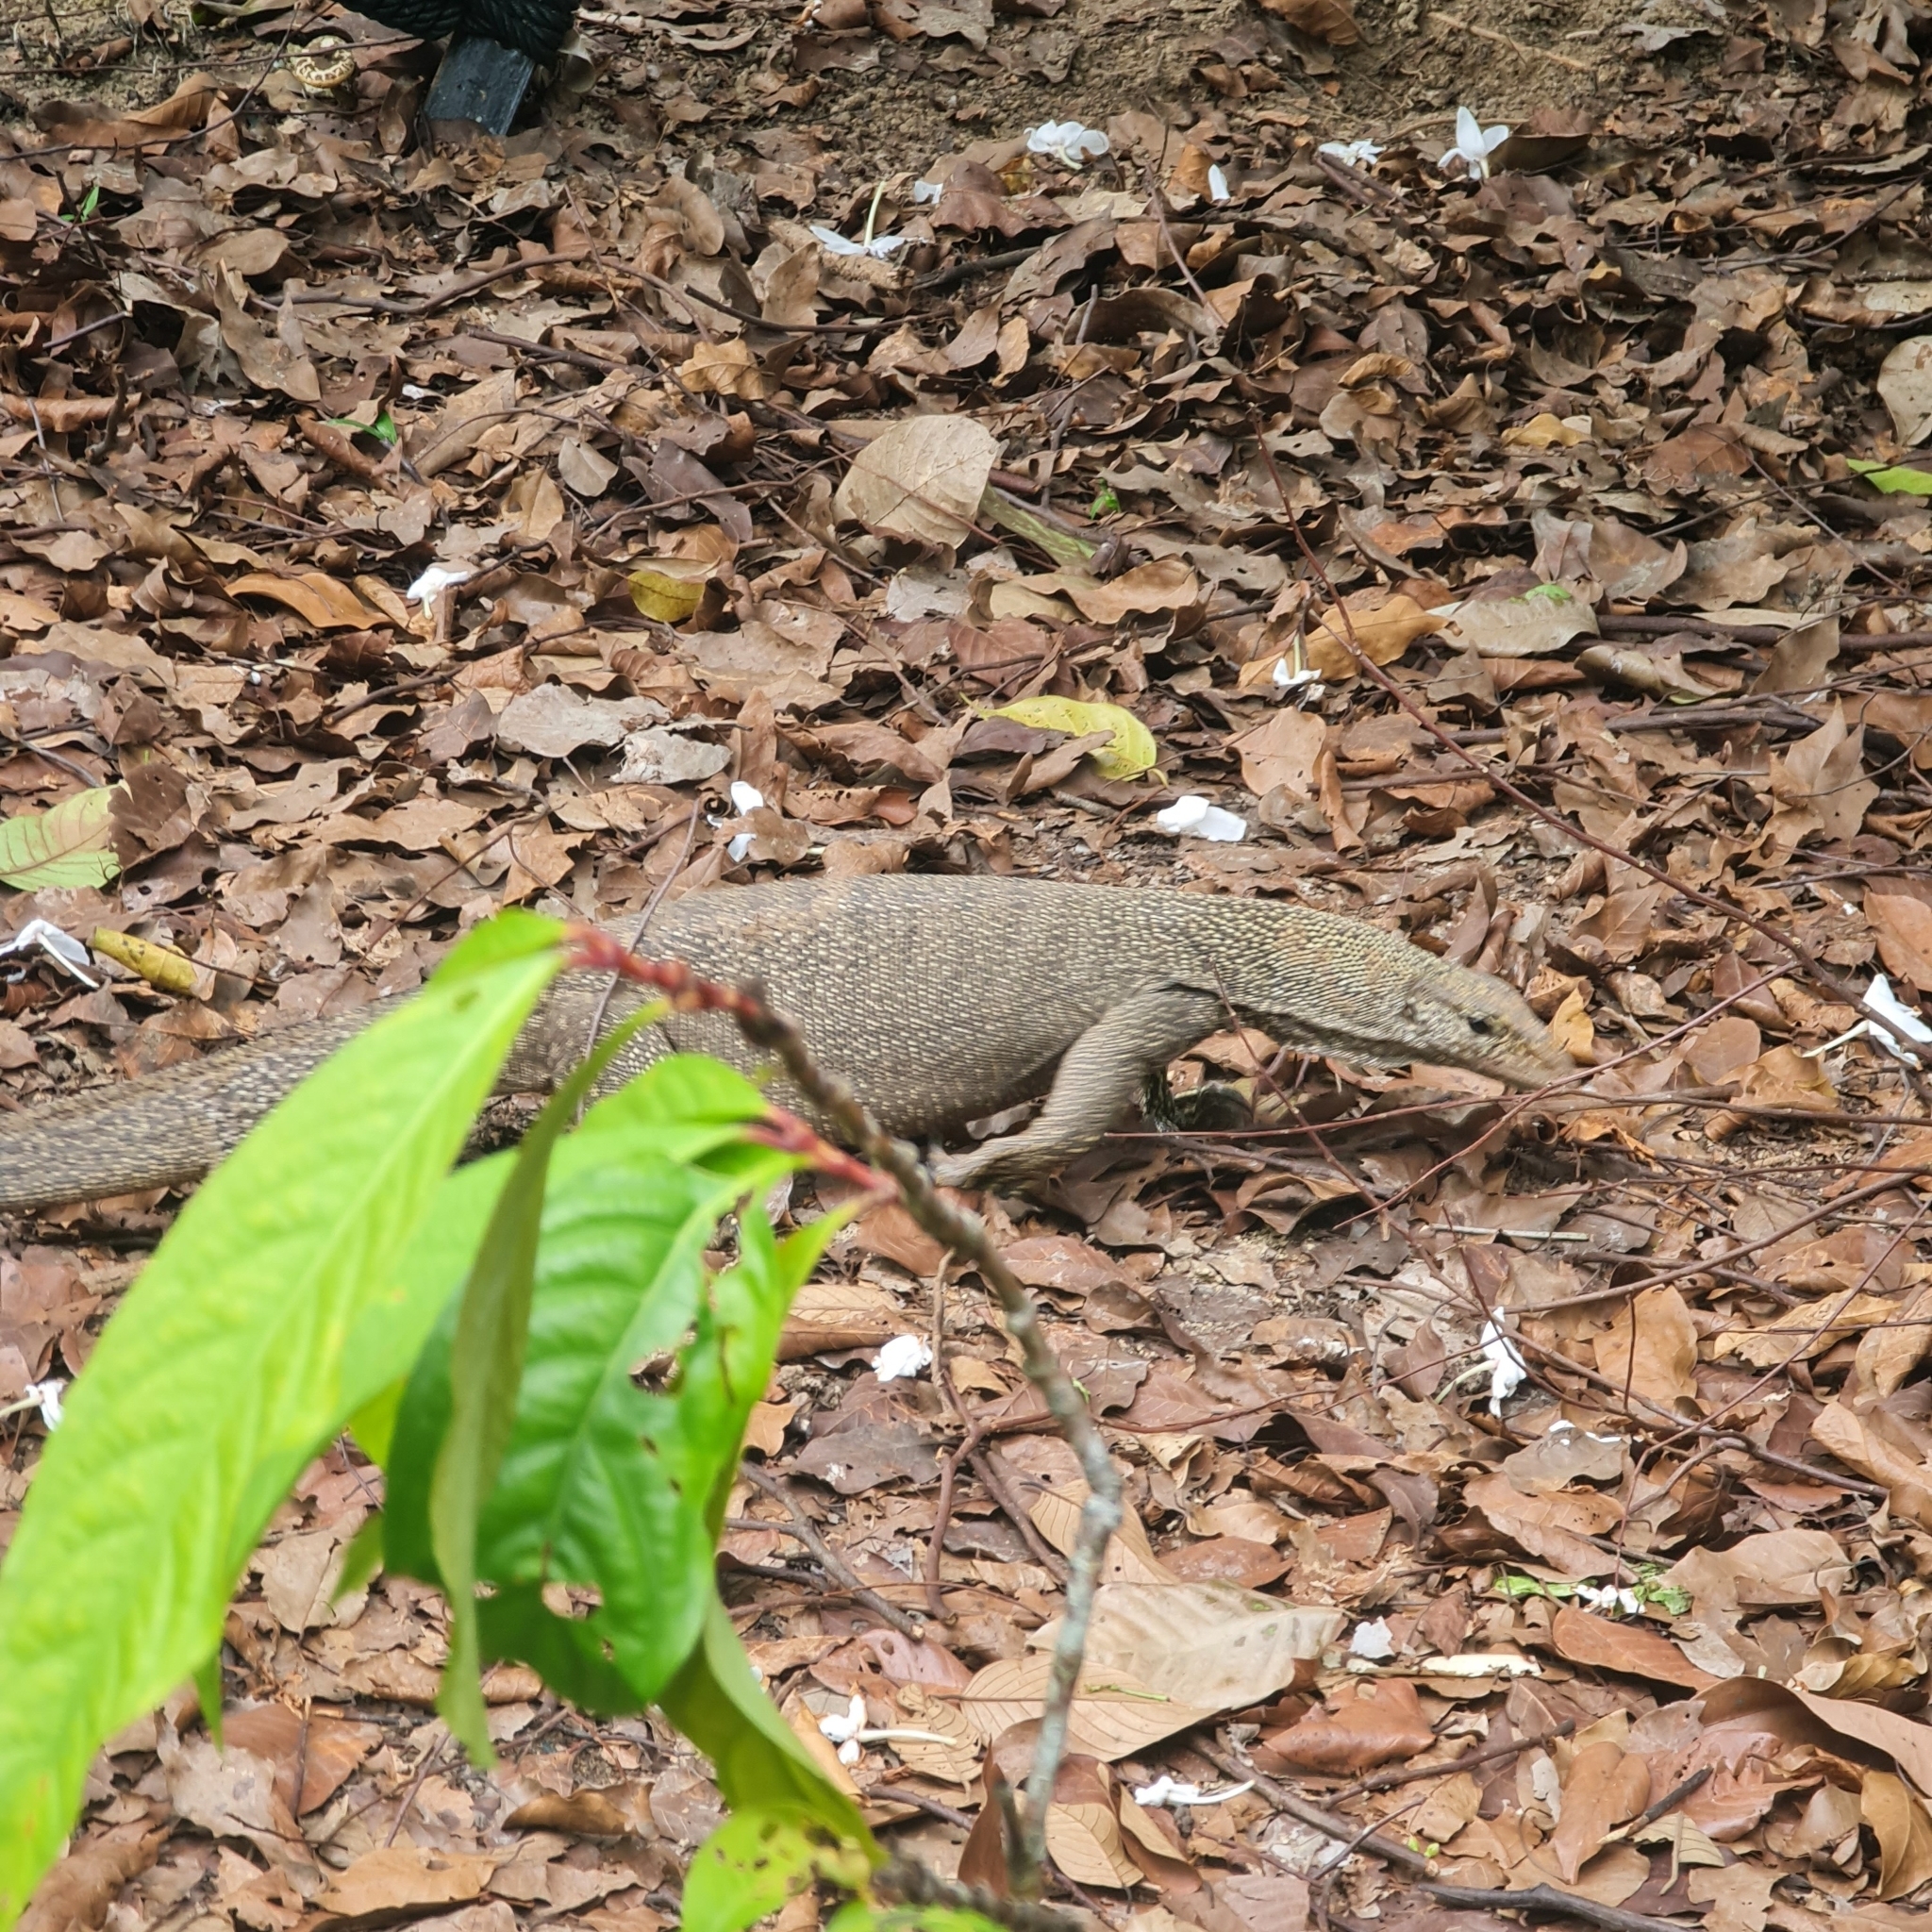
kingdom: Animalia
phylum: Chordata
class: Squamata
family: Varanidae
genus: Varanus
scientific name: Varanus nebulosus
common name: Clouded monitor
